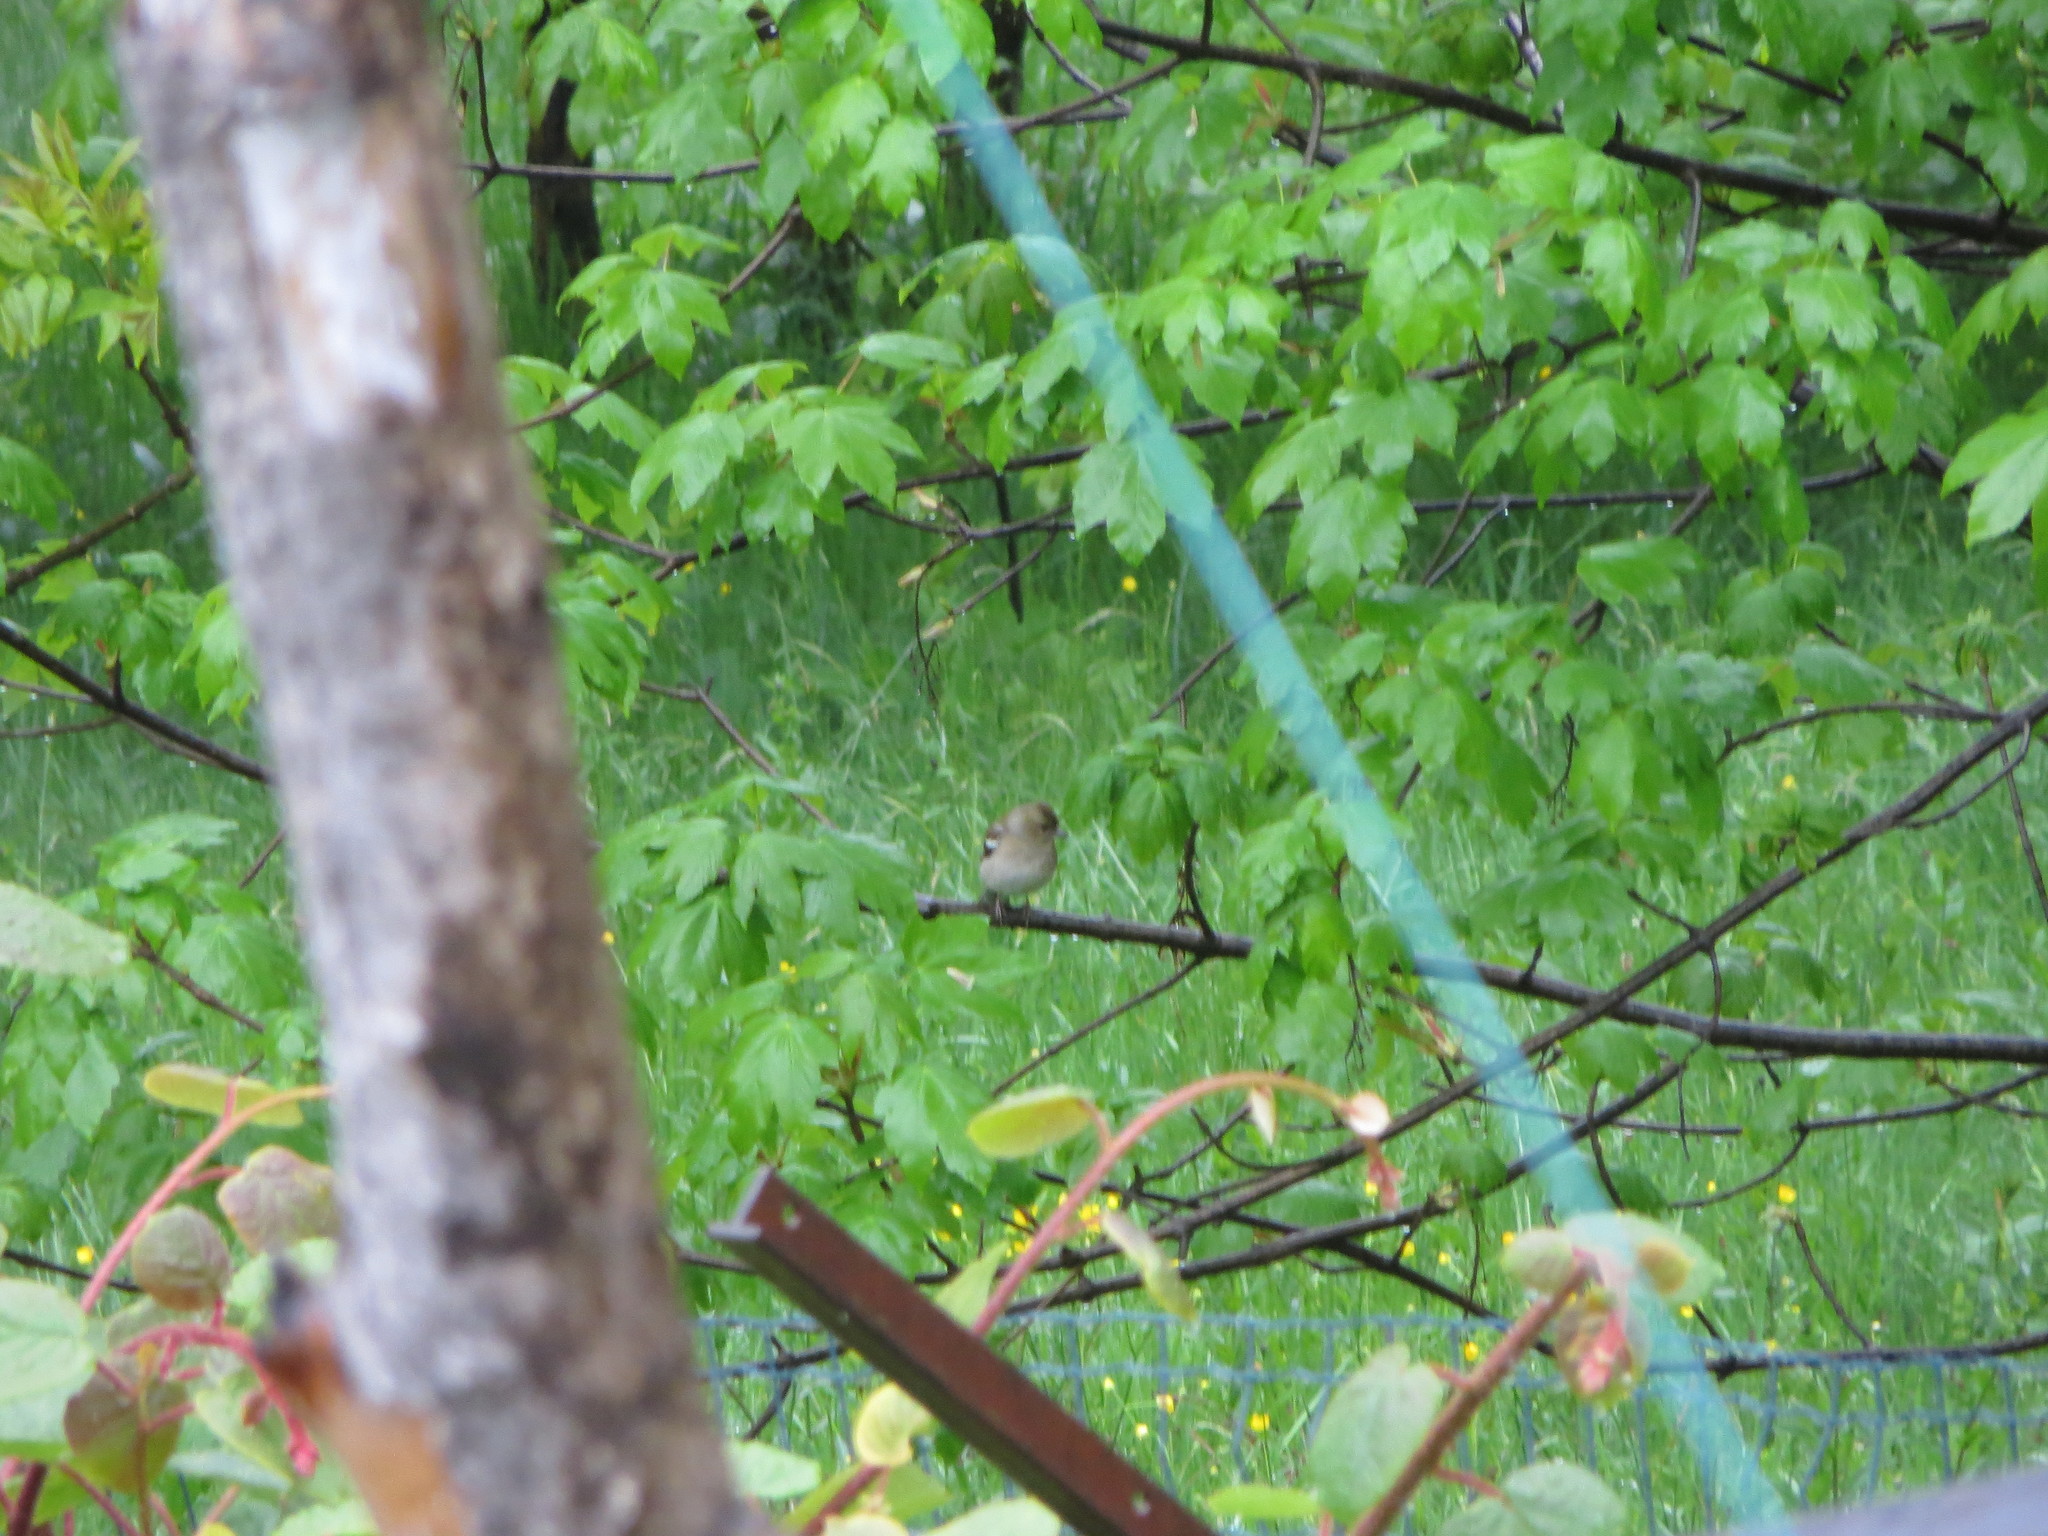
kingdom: Animalia
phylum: Chordata
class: Aves
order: Passeriformes
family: Fringillidae
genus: Fringilla
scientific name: Fringilla coelebs
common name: Common chaffinch
